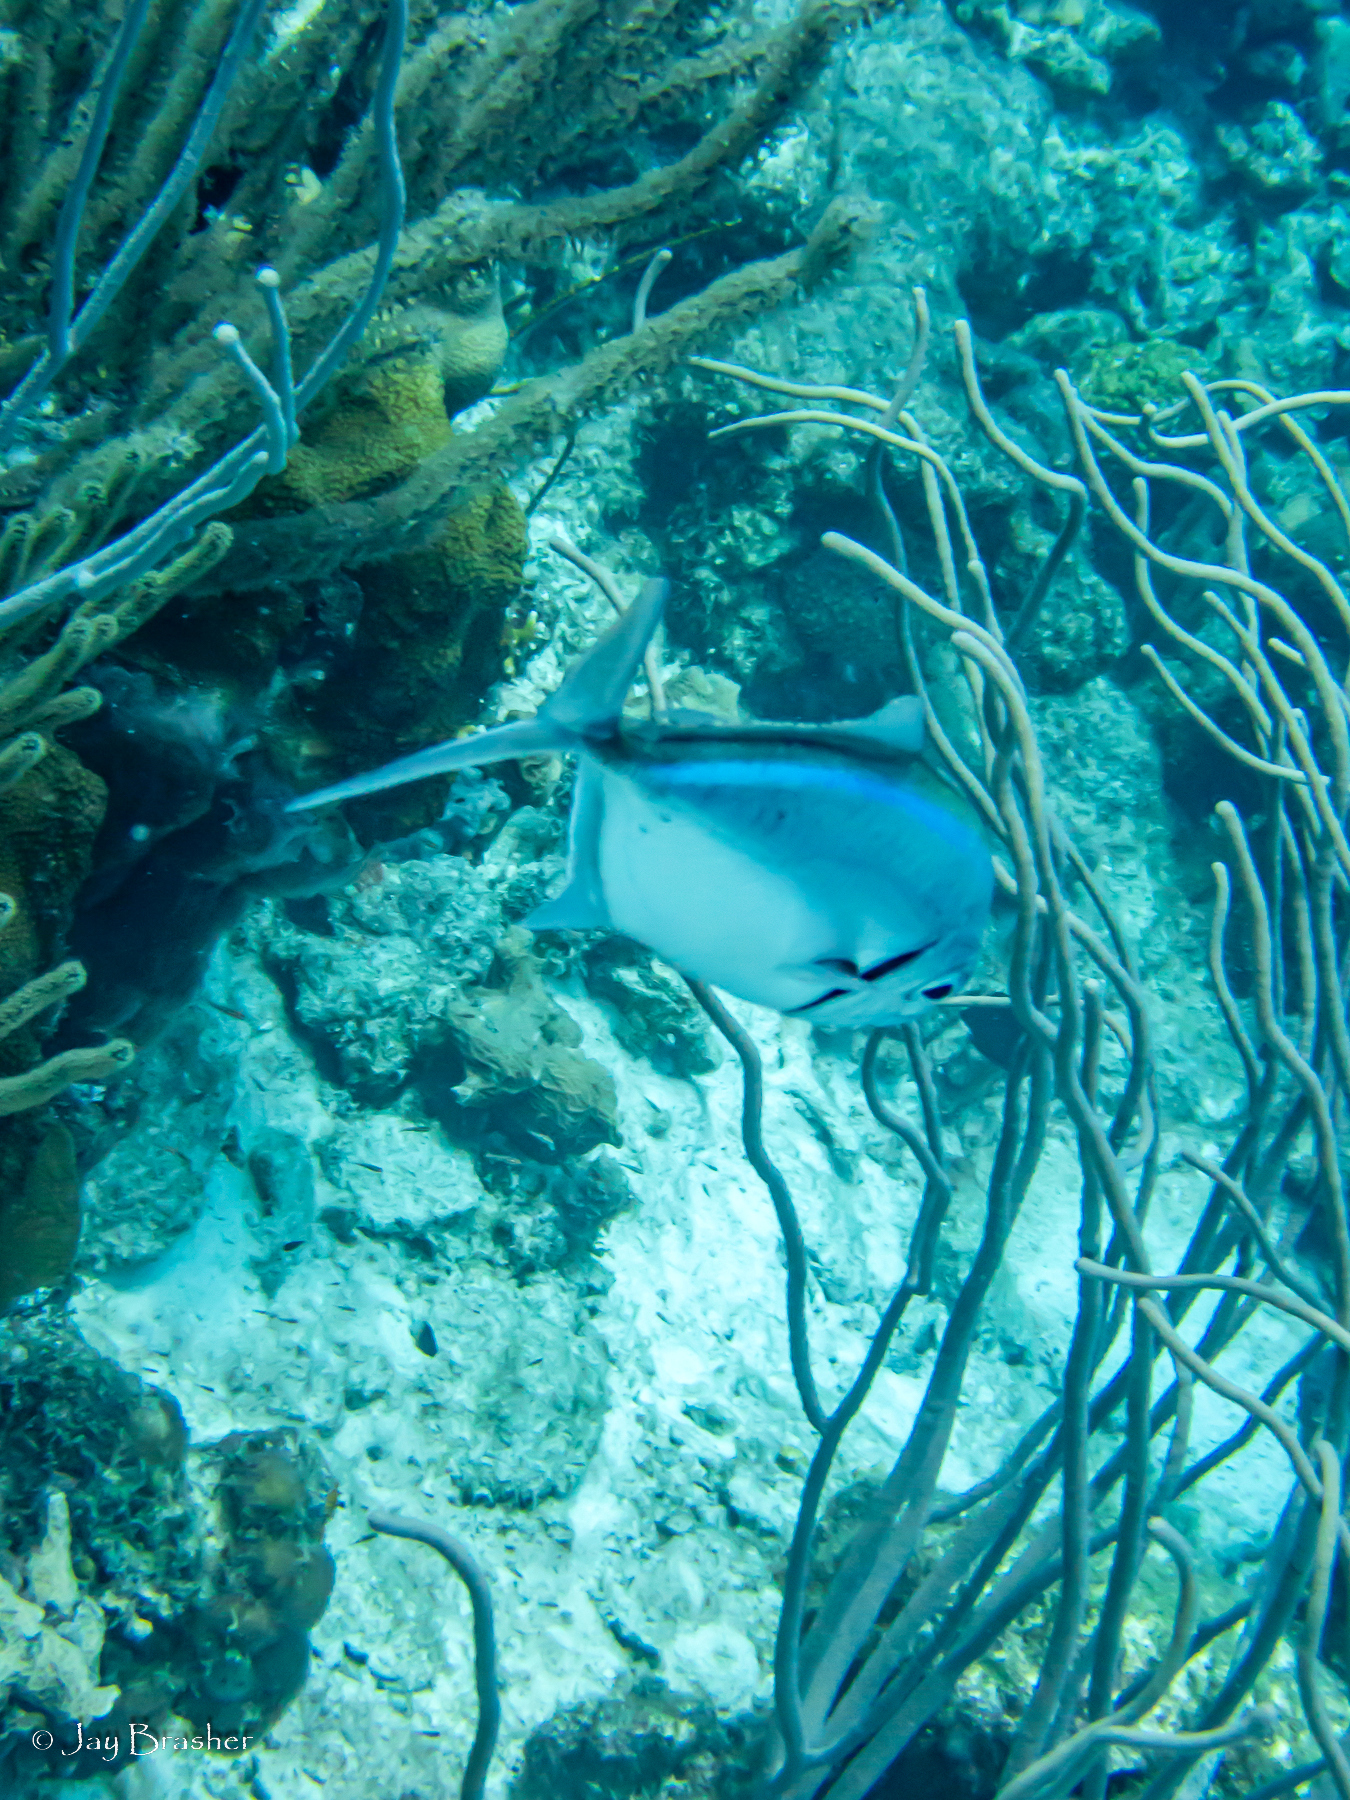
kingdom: Animalia
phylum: Chordata
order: Perciformes
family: Carangidae
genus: Caranx
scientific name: Caranx ruber
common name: Bar jack
